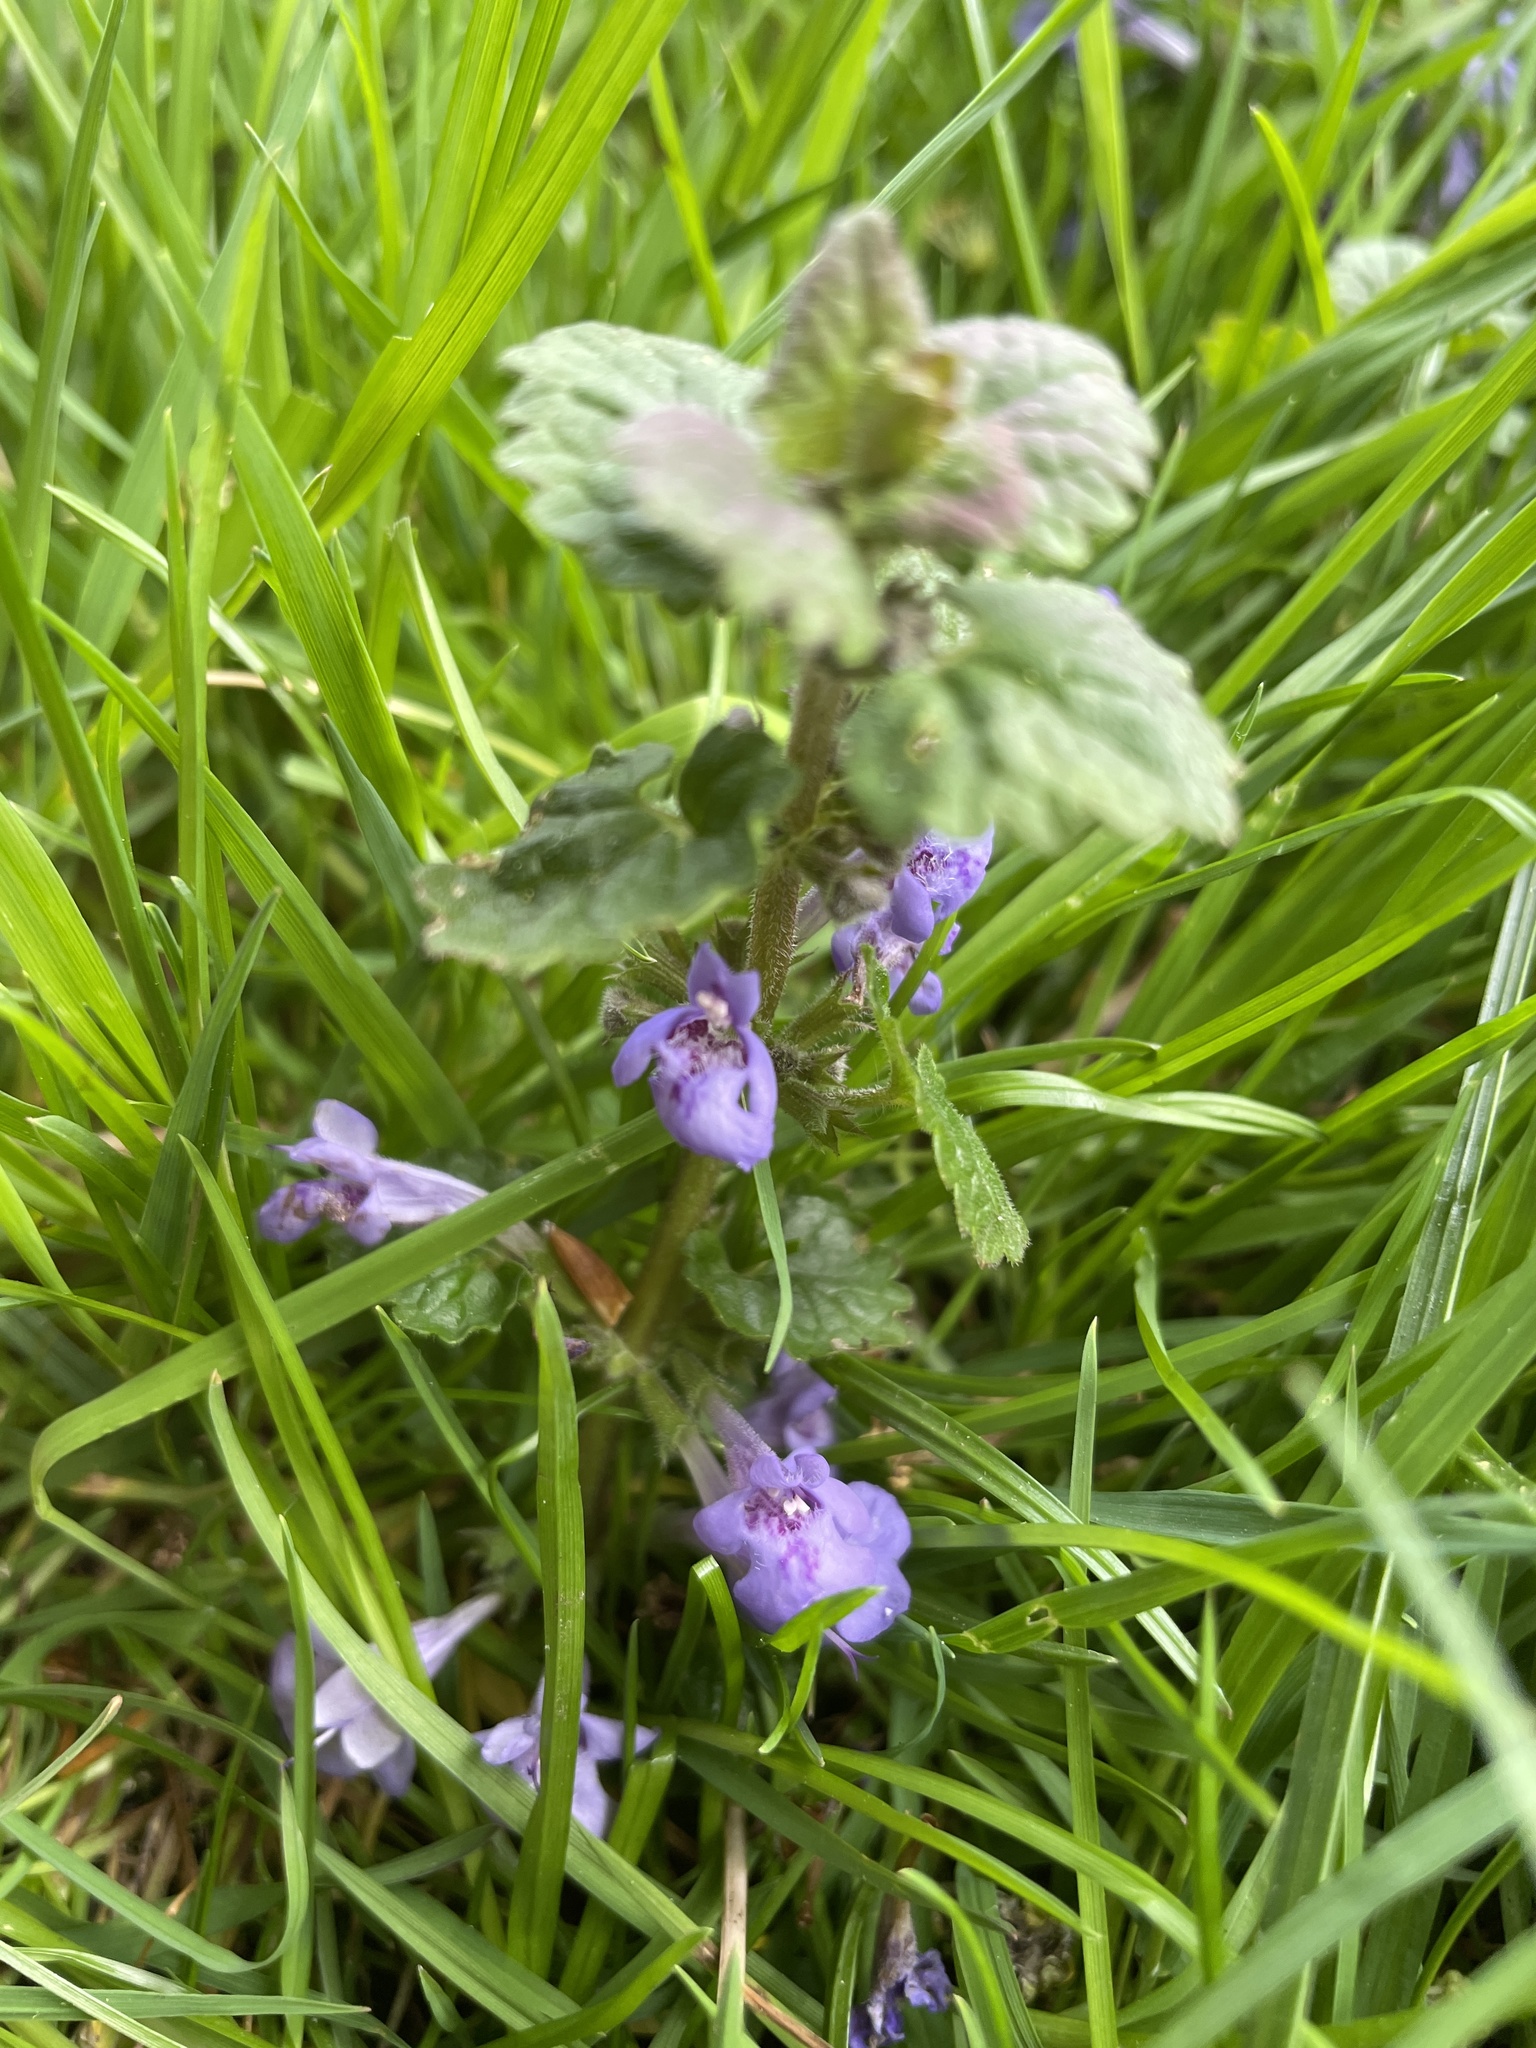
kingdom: Plantae
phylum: Tracheophyta
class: Magnoliopsida
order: Lamiales
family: Lamiaceae
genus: Glechoma
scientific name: Glechoma hederacea
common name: Ground ivy
